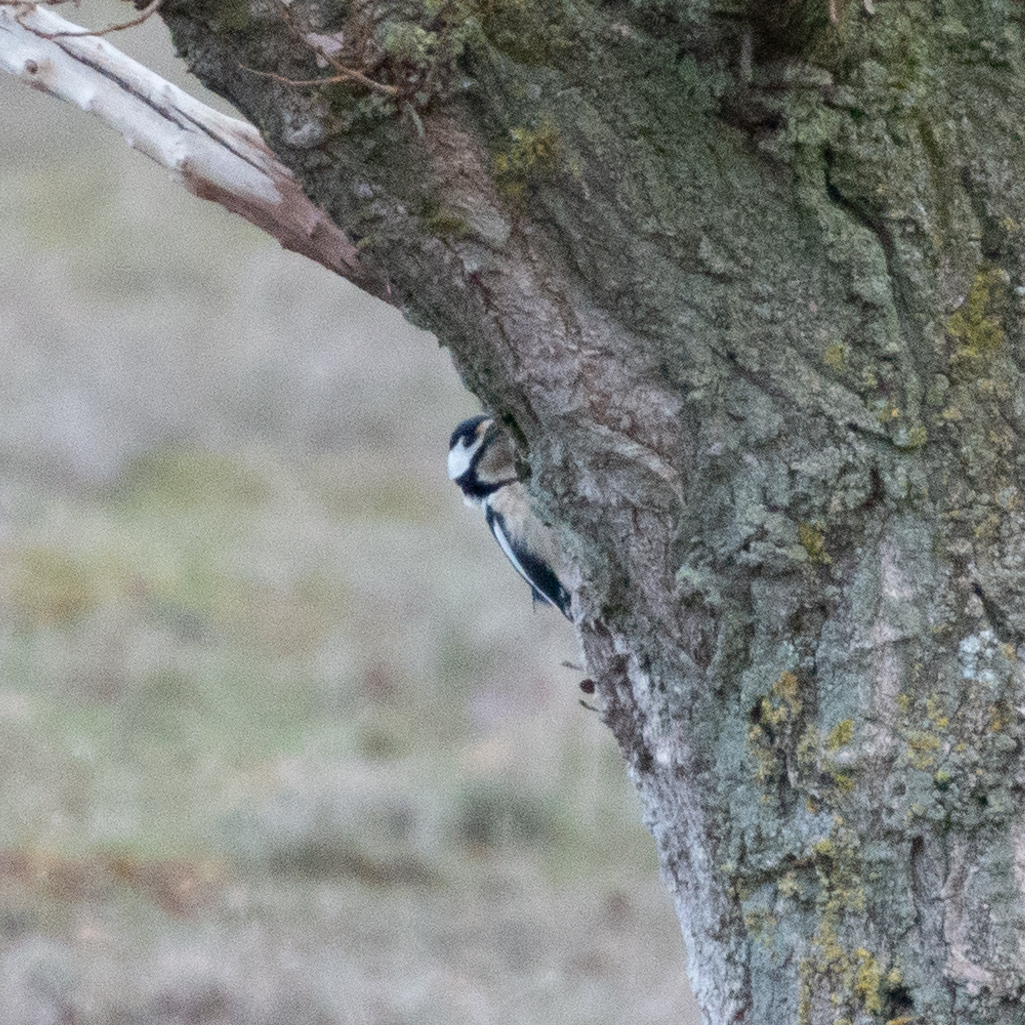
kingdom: Animalia
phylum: Chordata
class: Aves
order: Piciformes
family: Picidae
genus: Dendrocopos
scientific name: Dendrocopos major
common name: Great spotted woodpecker
